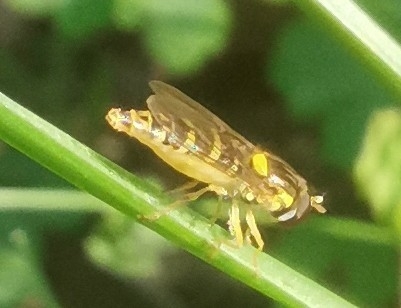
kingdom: Animalia
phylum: Arthropoda
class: Insecta
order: Diptera
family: Syrphidae
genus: Sphaerophoria
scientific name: Sphaerophoria
